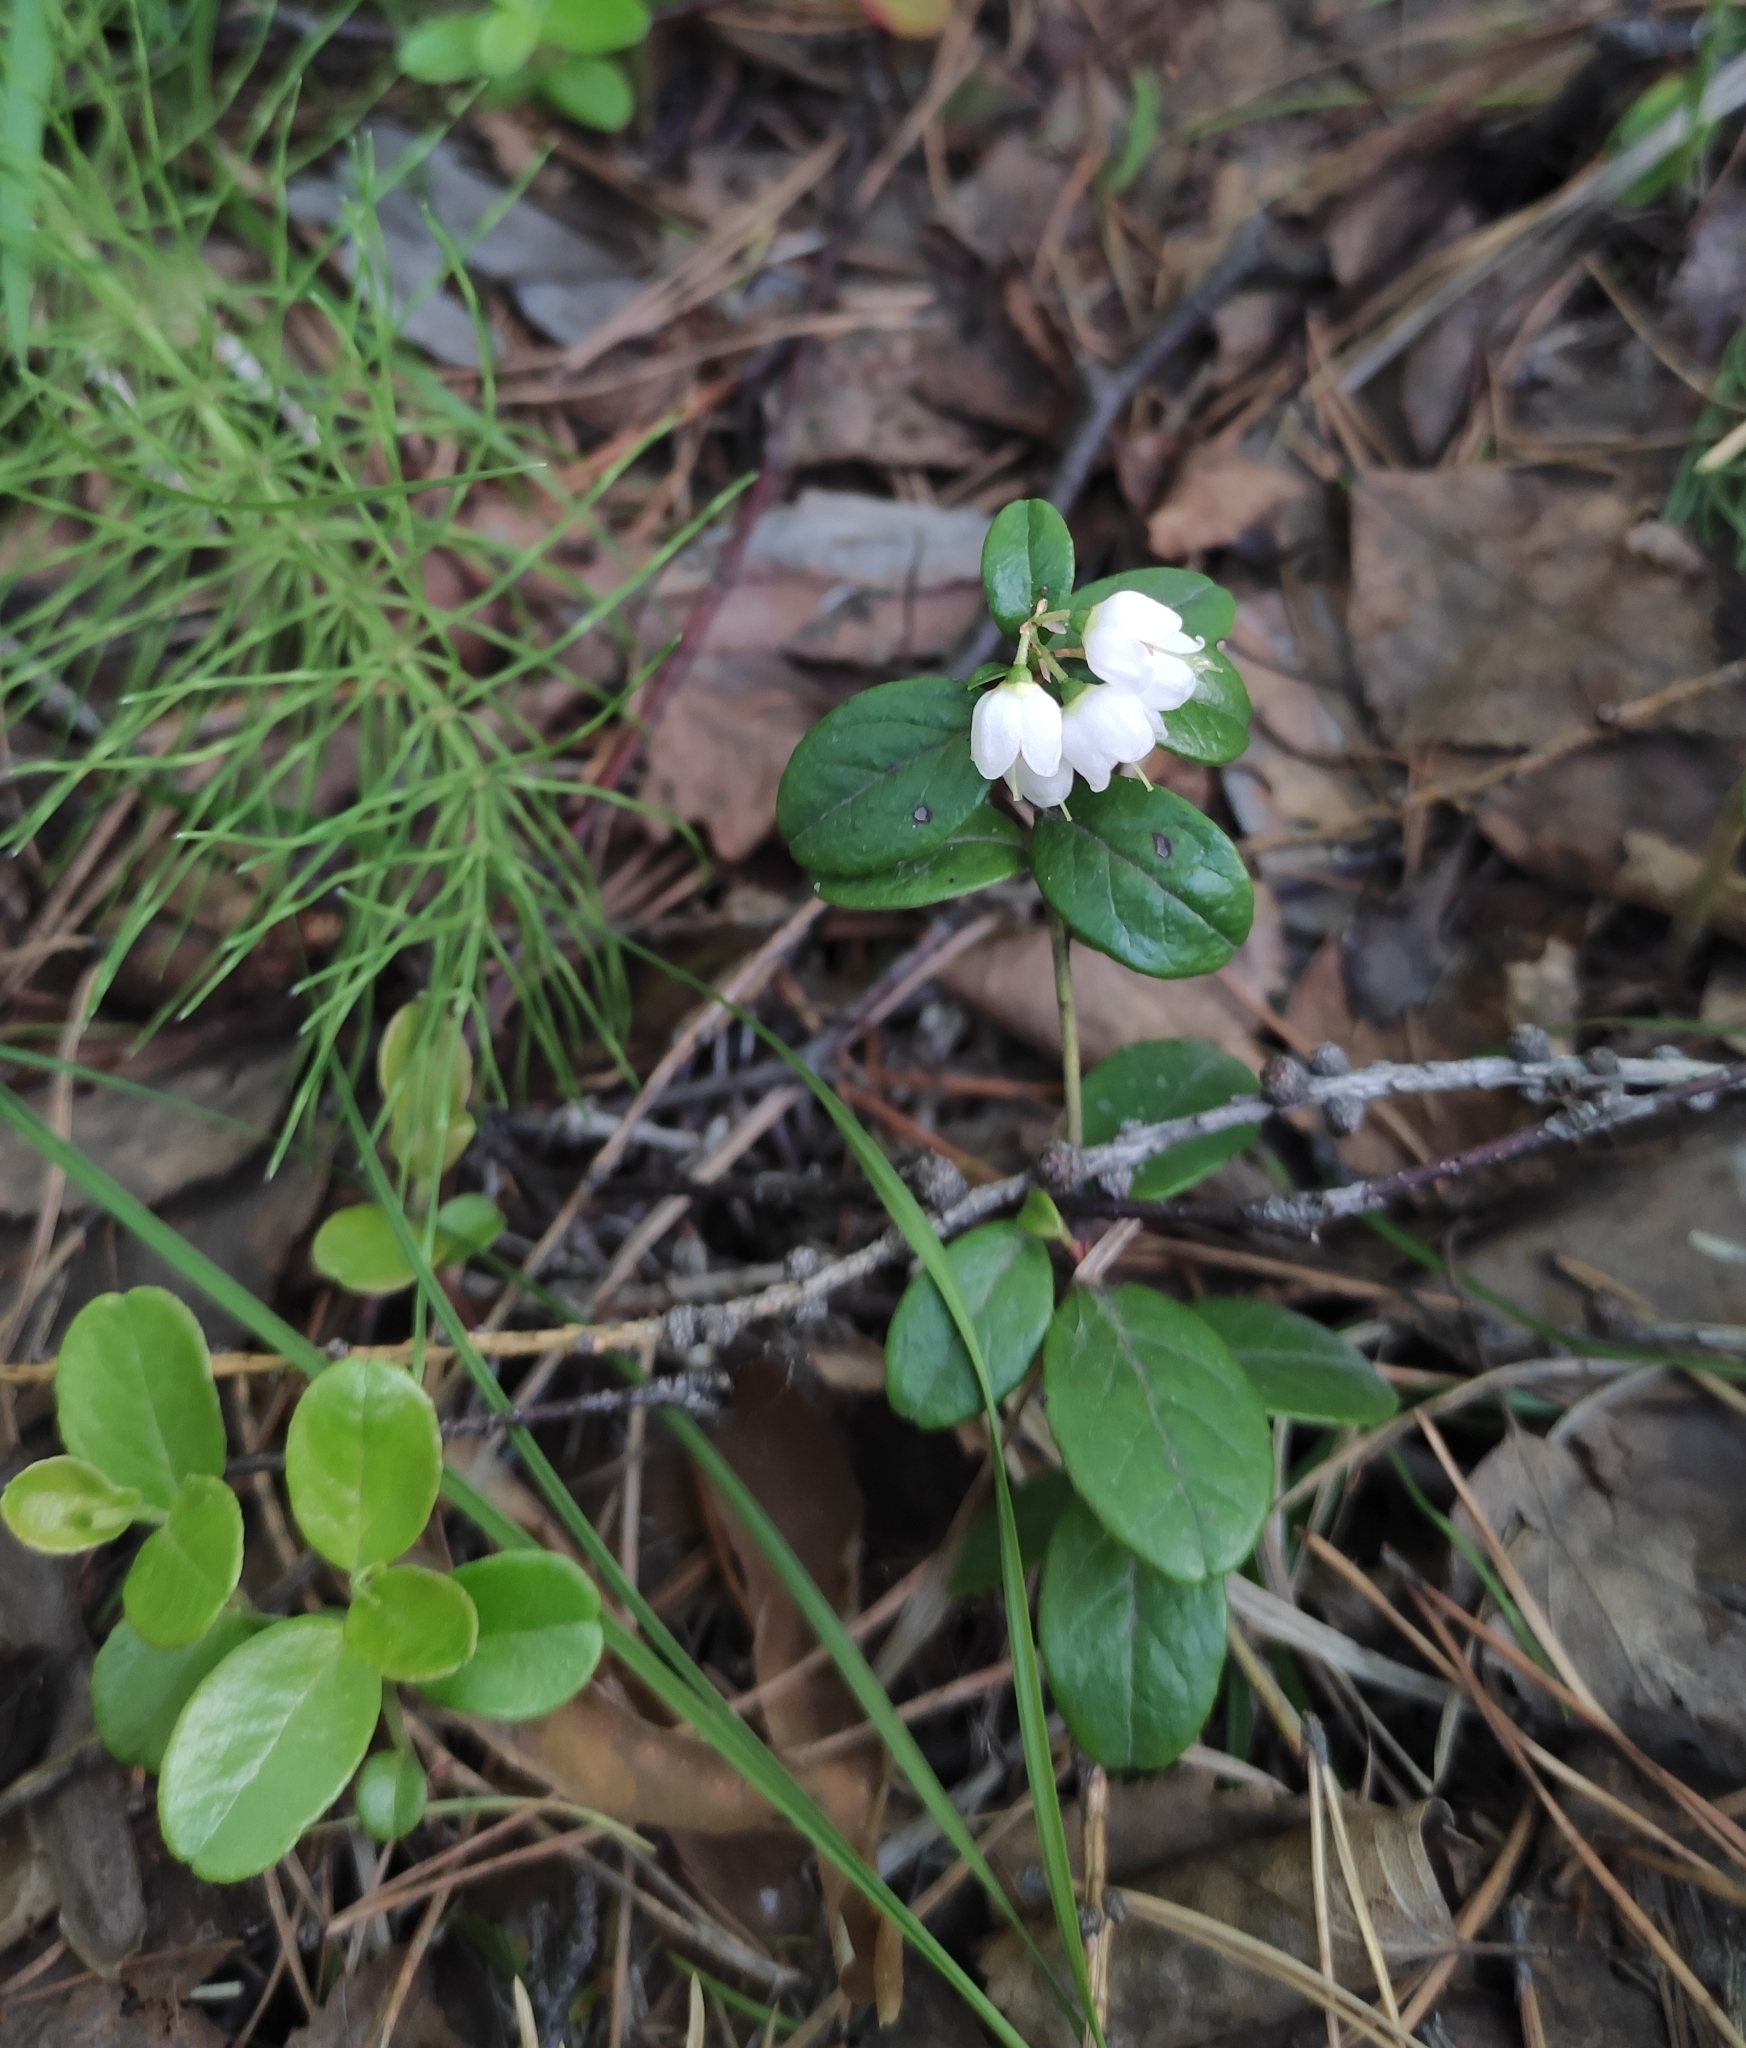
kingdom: Plantae
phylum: Tracheophyta
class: Magnoliopsida
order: Ericales
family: Ericaceae
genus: Vaccinium
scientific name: Vaccinium vitis-idaea
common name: Cowberry
